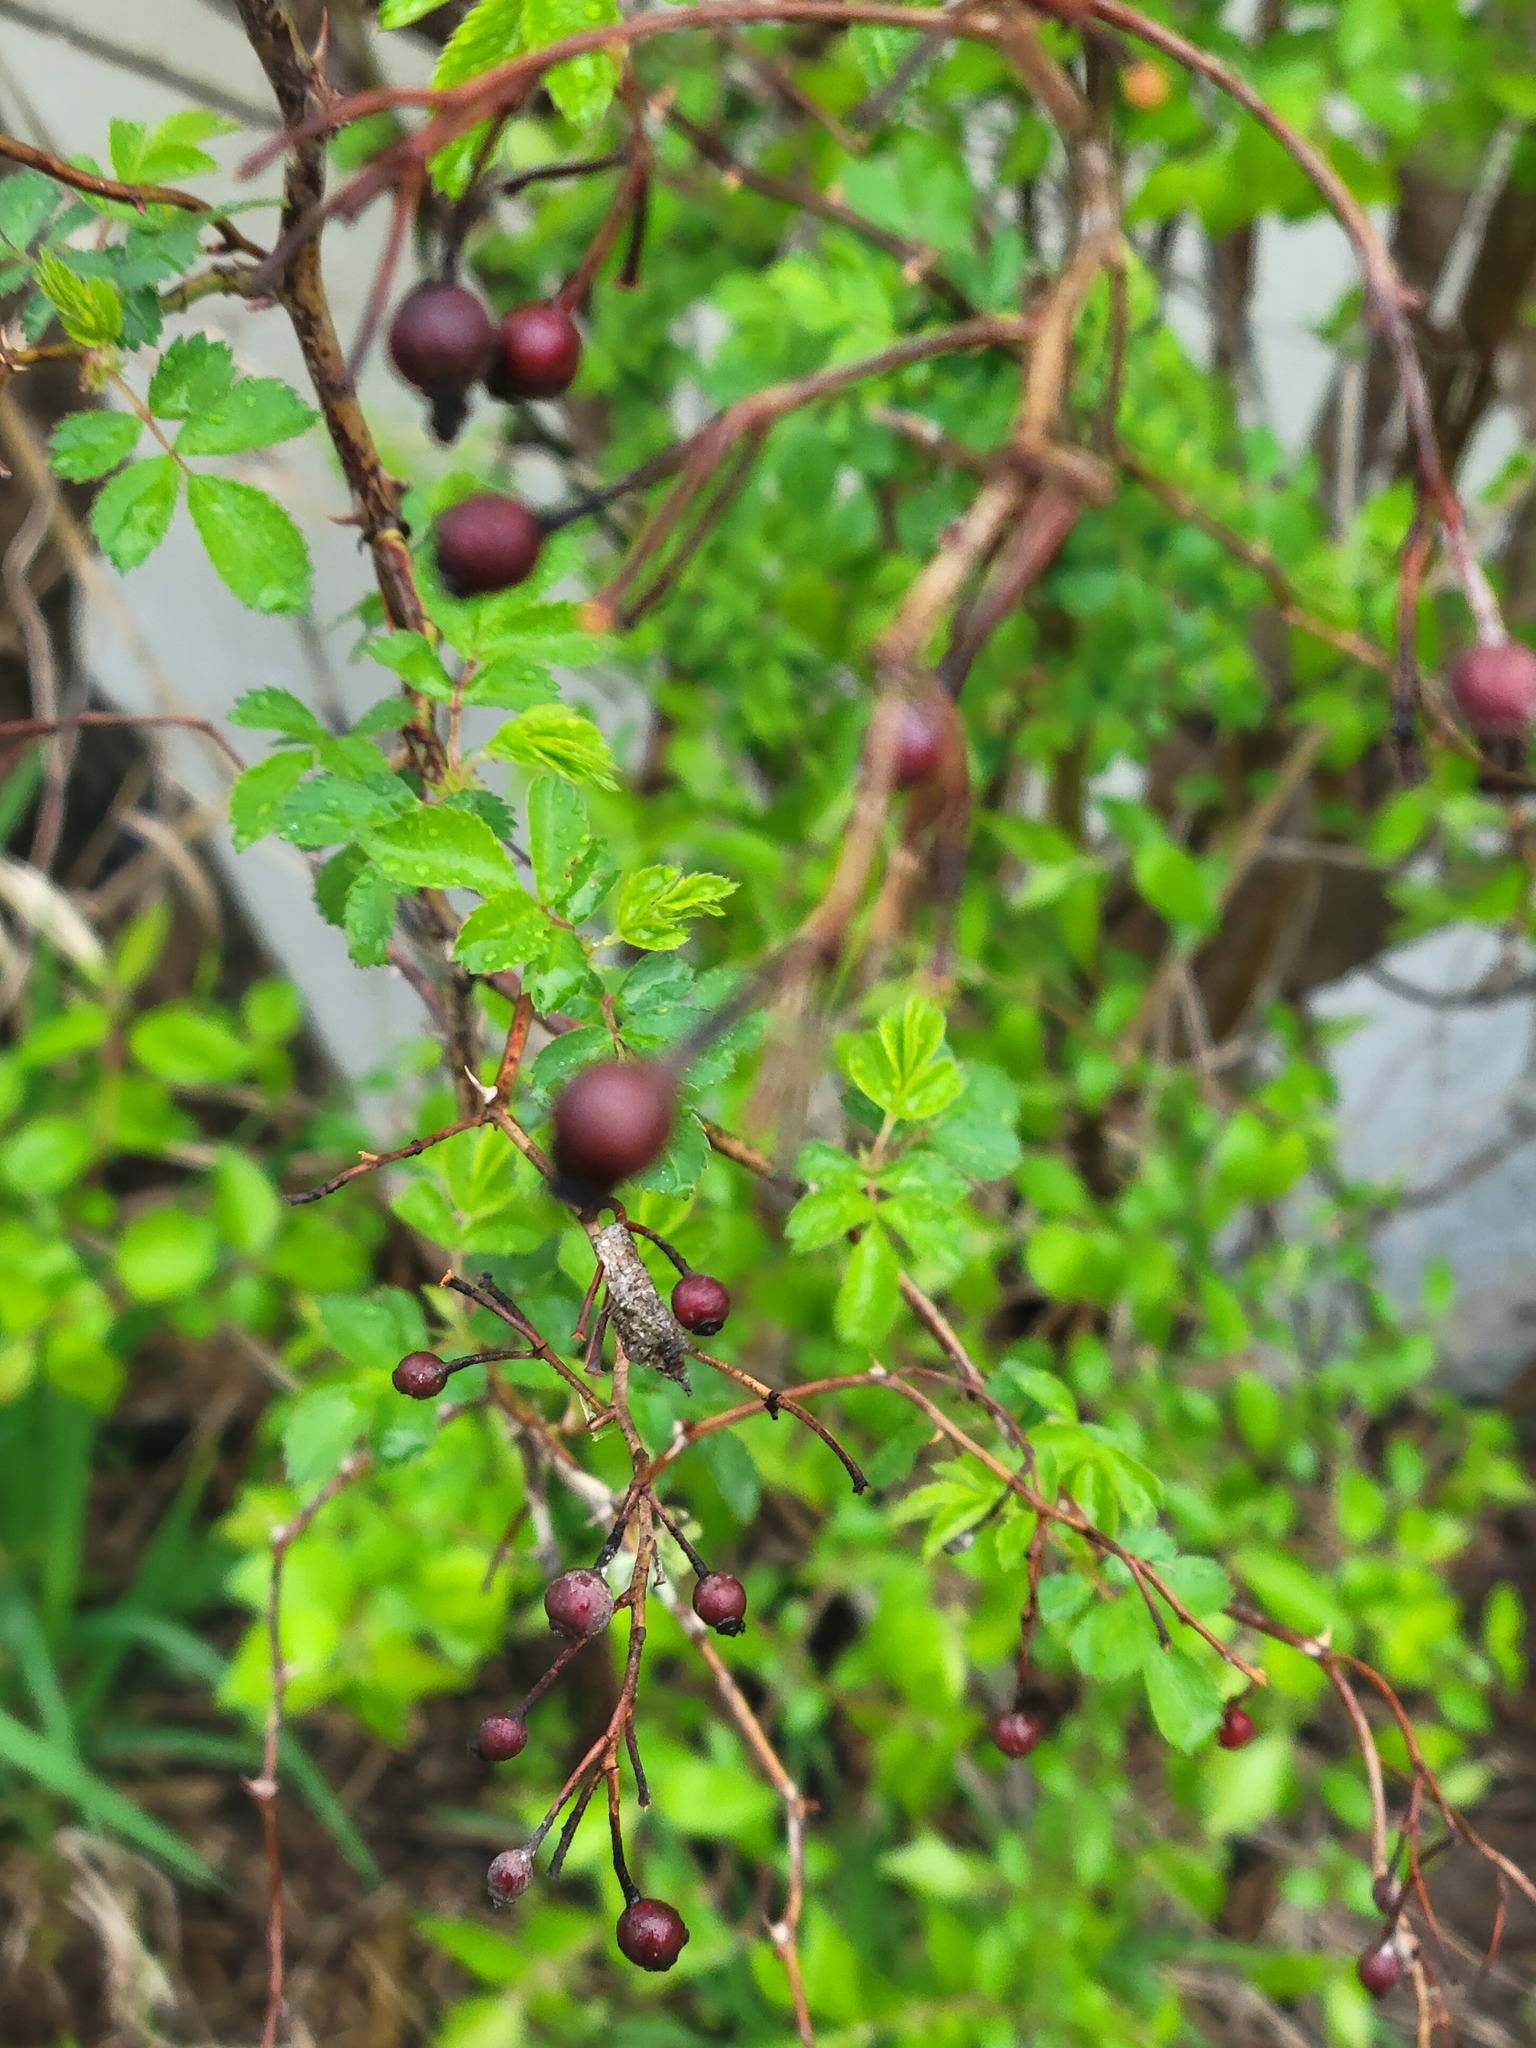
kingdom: Plantae
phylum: Tracheophyta
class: Magnoliopsida
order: Rosales
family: Rosaceae
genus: Rosa
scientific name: Rosa multiflora
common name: Multiflora rose
